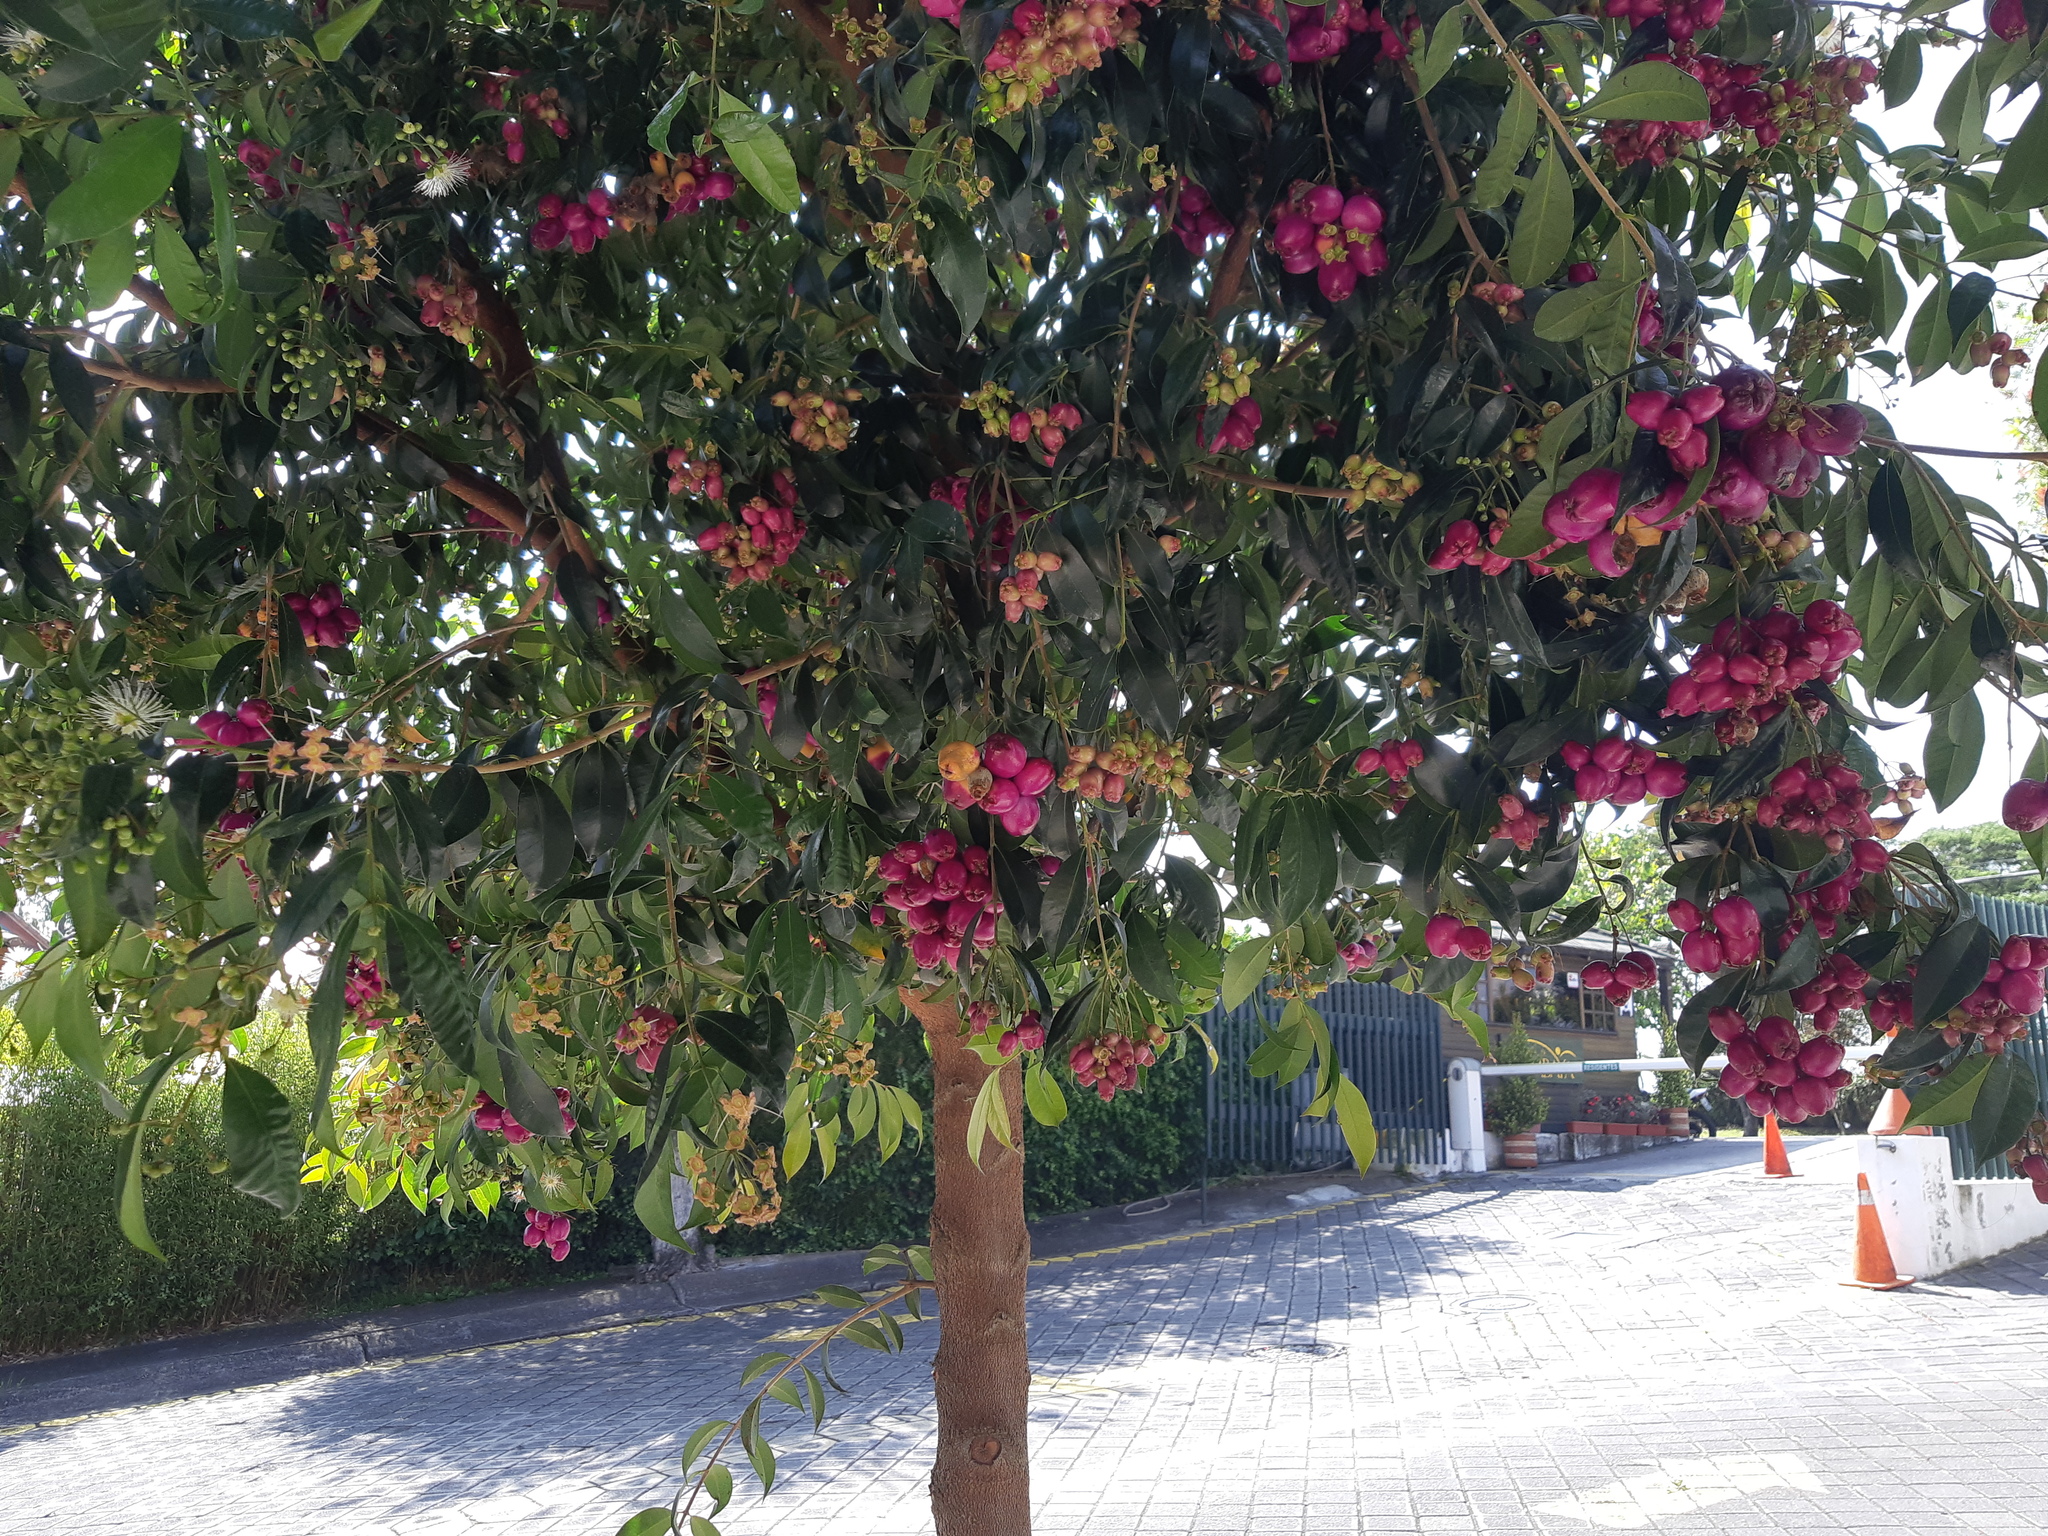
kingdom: Plantae
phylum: Tracheophyta
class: Magnoliopsida
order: Myrtales
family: Myrtaceae
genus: Syzygium
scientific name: Syzygium paniculatum
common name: Magenta lilly-pilly
